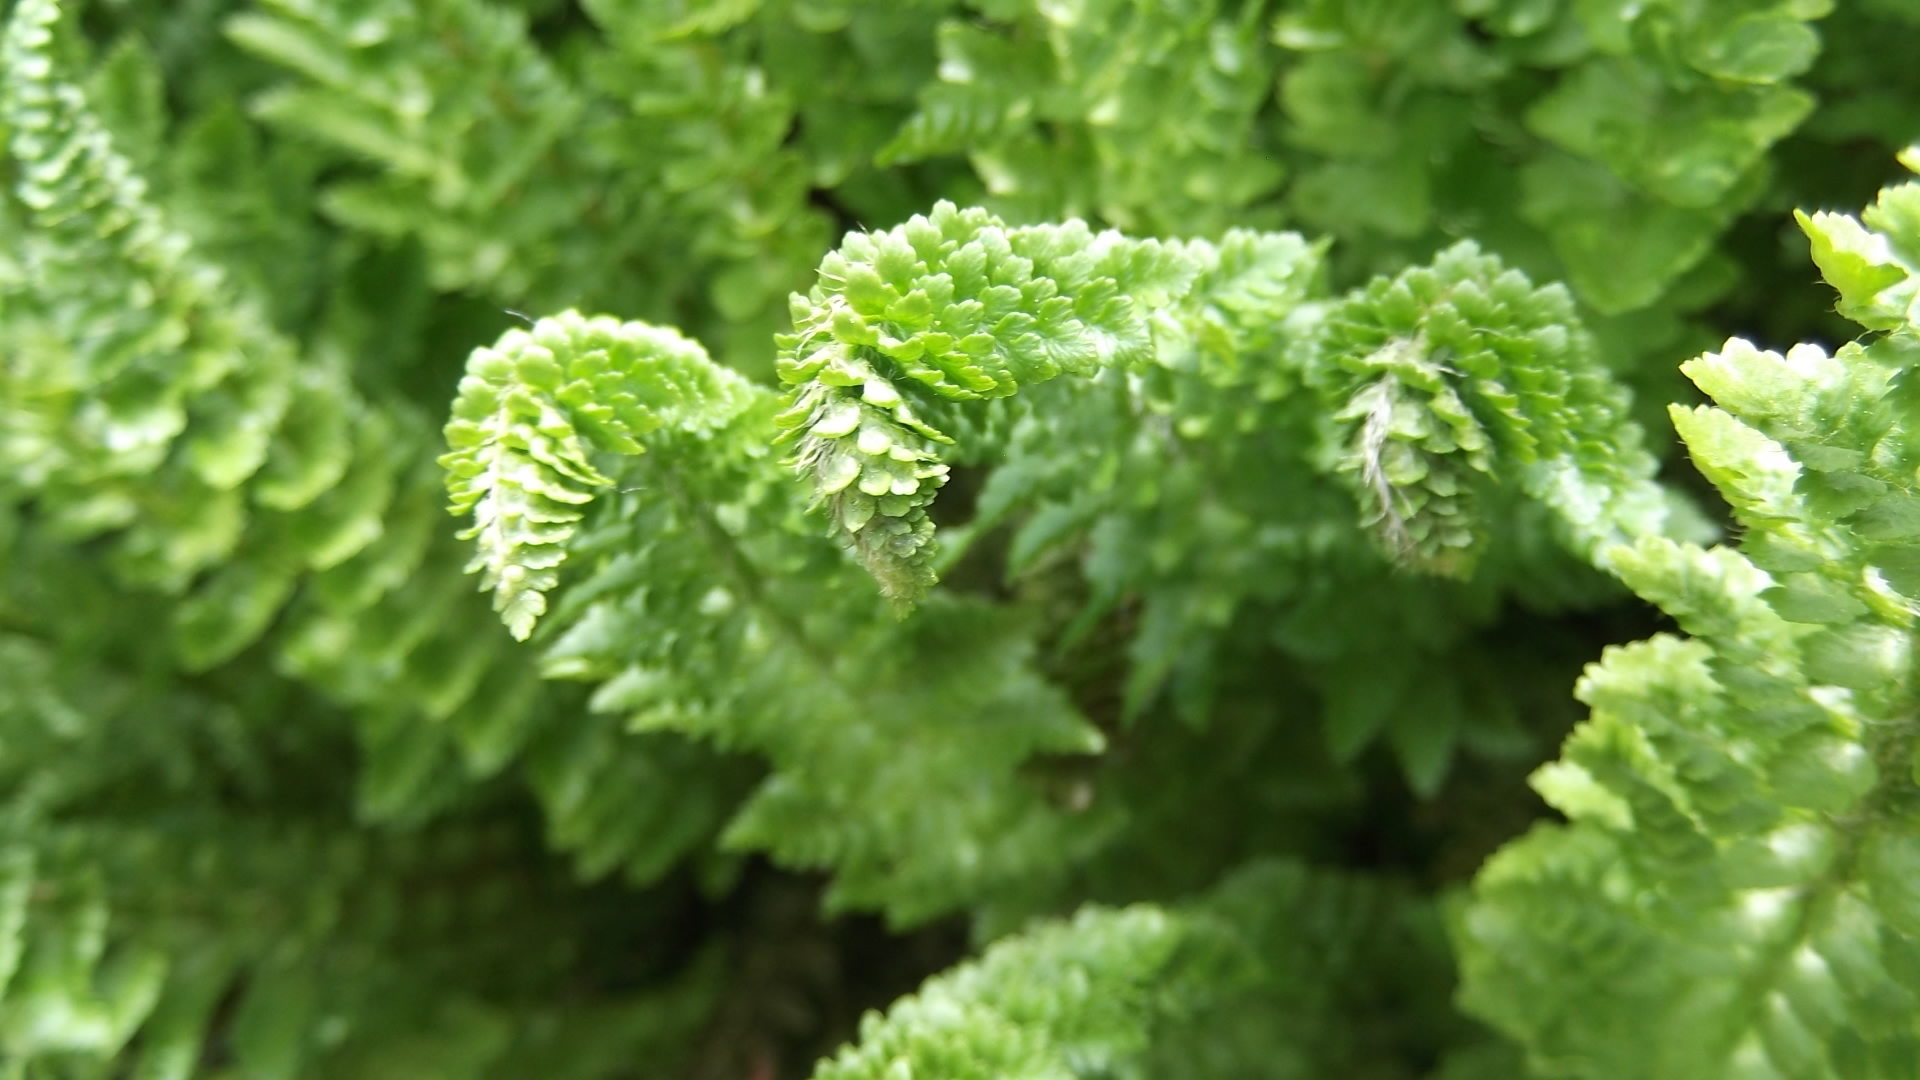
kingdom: Plantae
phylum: Tracheophyta
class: Polypodiopsida
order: Polypodiales
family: Dryopteridaceae
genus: Polystichum
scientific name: Polystichum lemmonii
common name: Lemmon's holly fern
